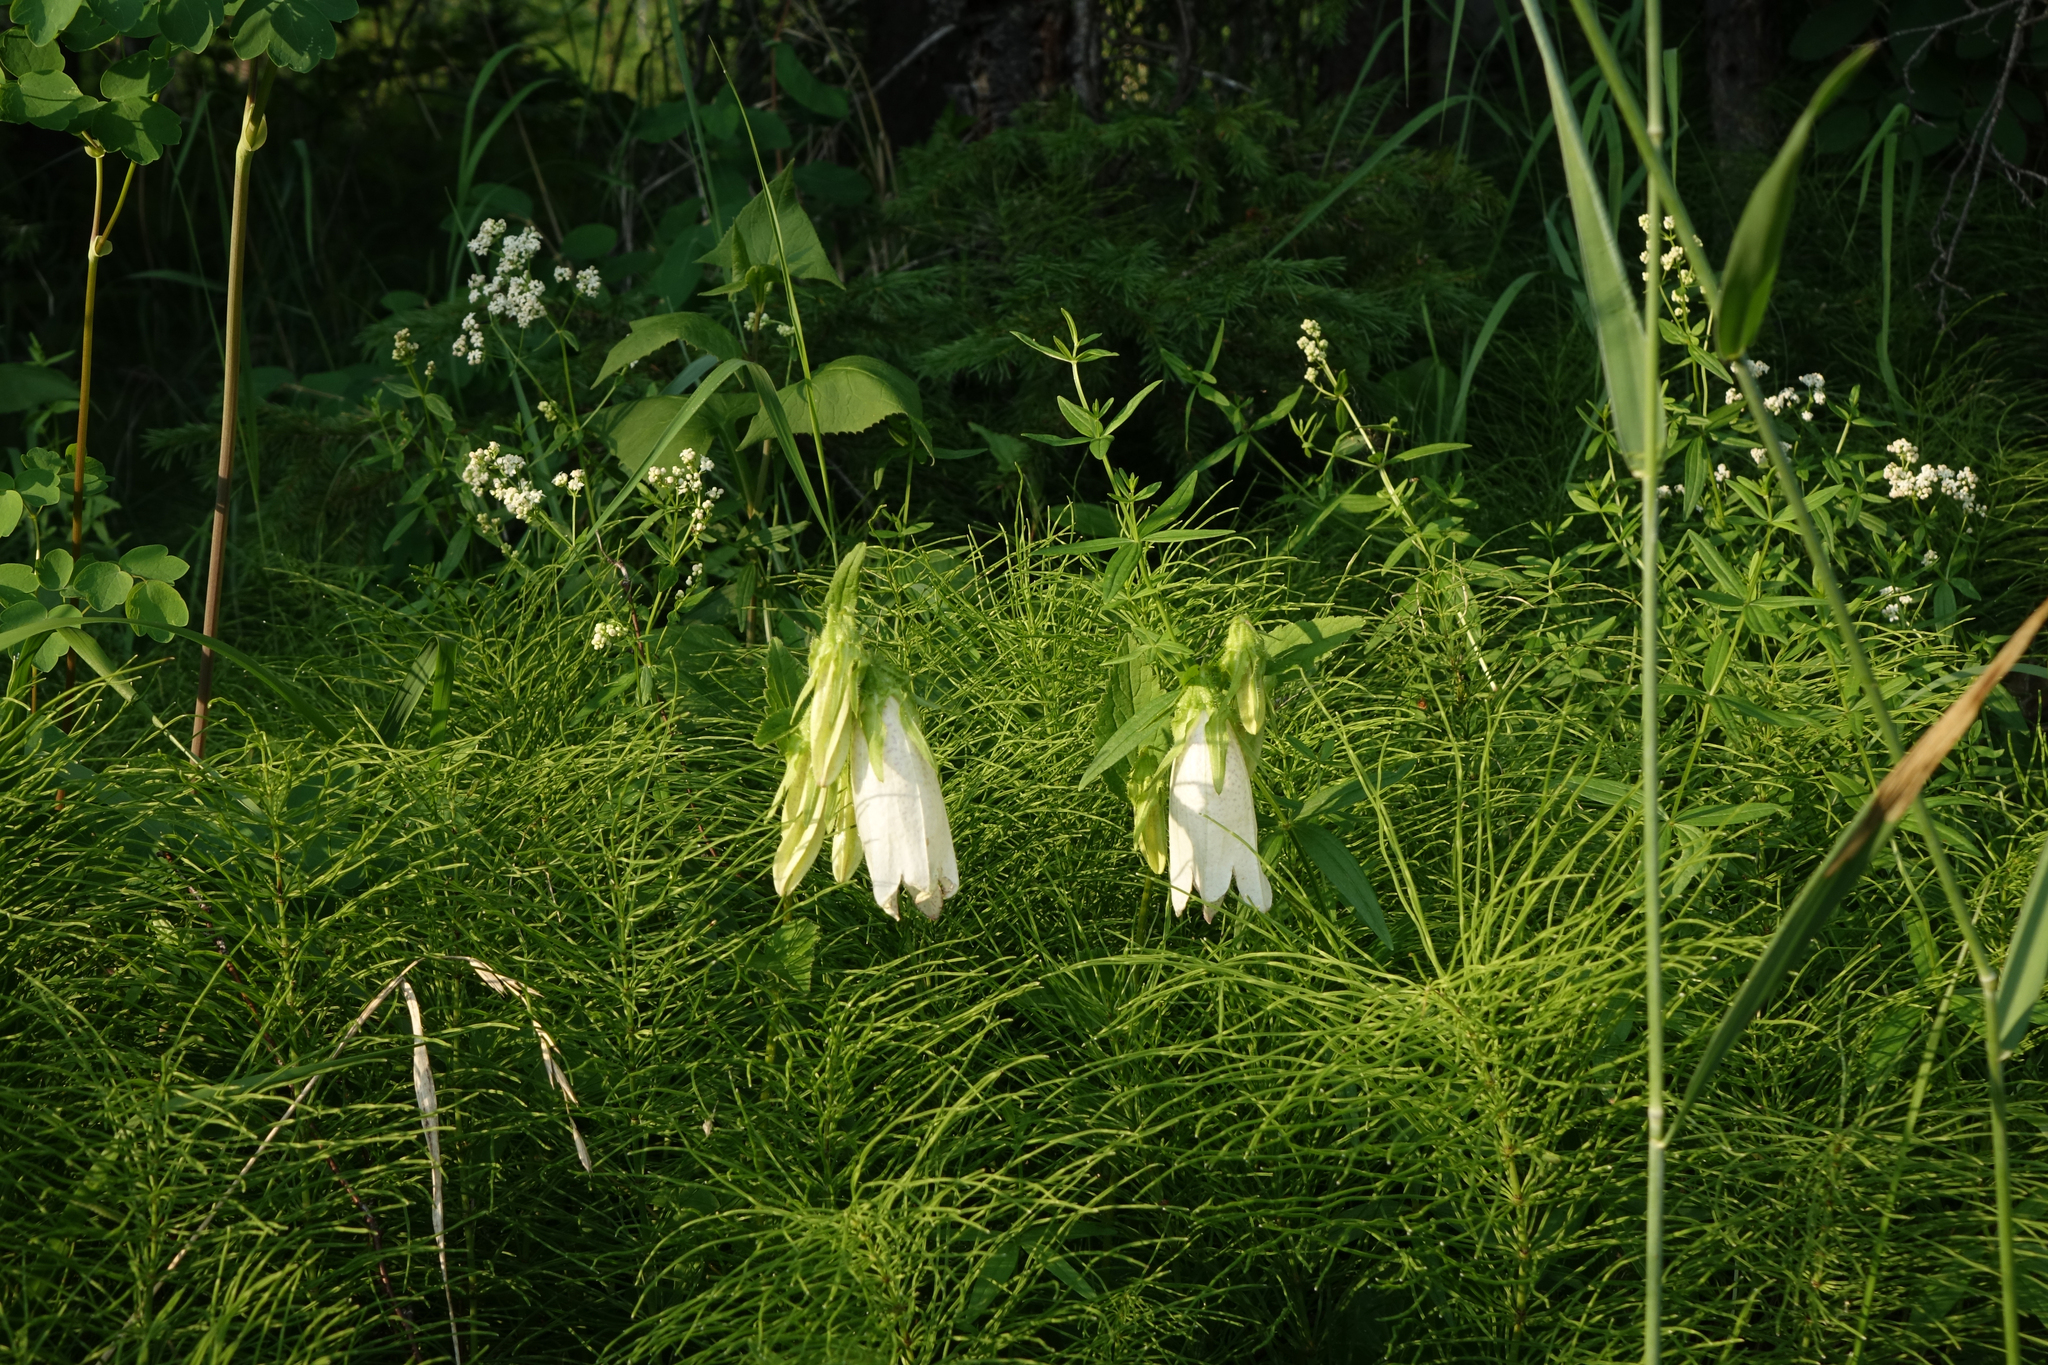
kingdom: Plantae
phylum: Tracheophyta
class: Magnoliopsida
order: Asterales
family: Campanulaceae
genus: Campanula
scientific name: Campanula punctata
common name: Spotted bellflower
